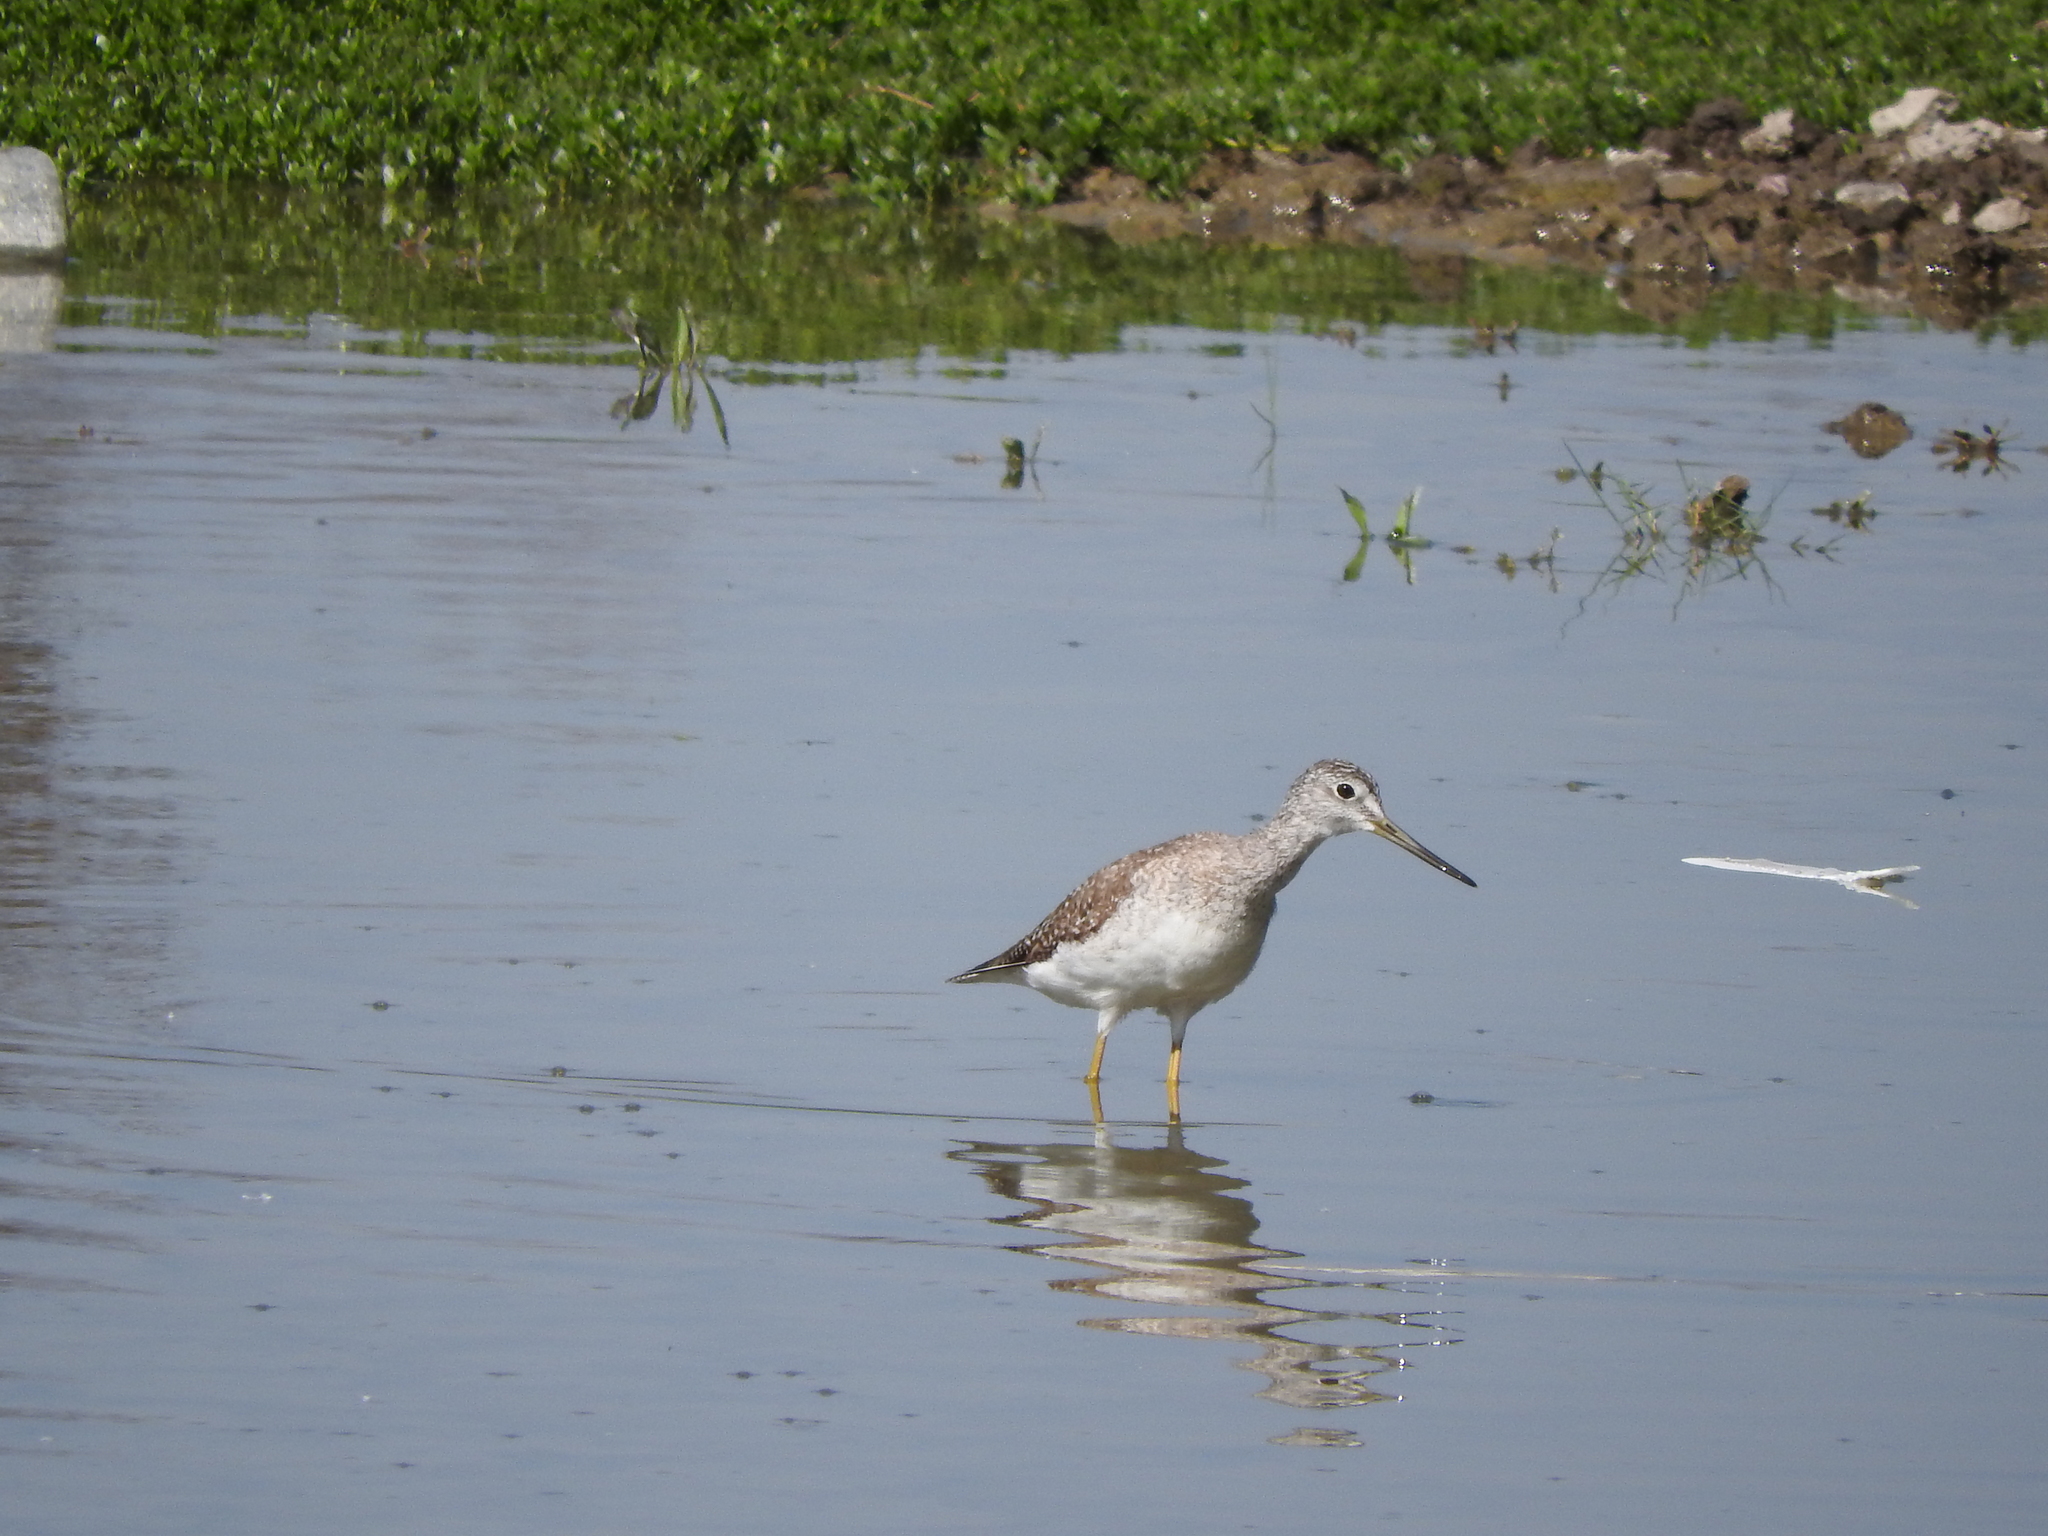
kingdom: Animalia
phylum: Chordata
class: Aves
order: Charadriiformes
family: Scolopacidae
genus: Tringa
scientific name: Tringa melanoleuca
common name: Greater yellowlegs
